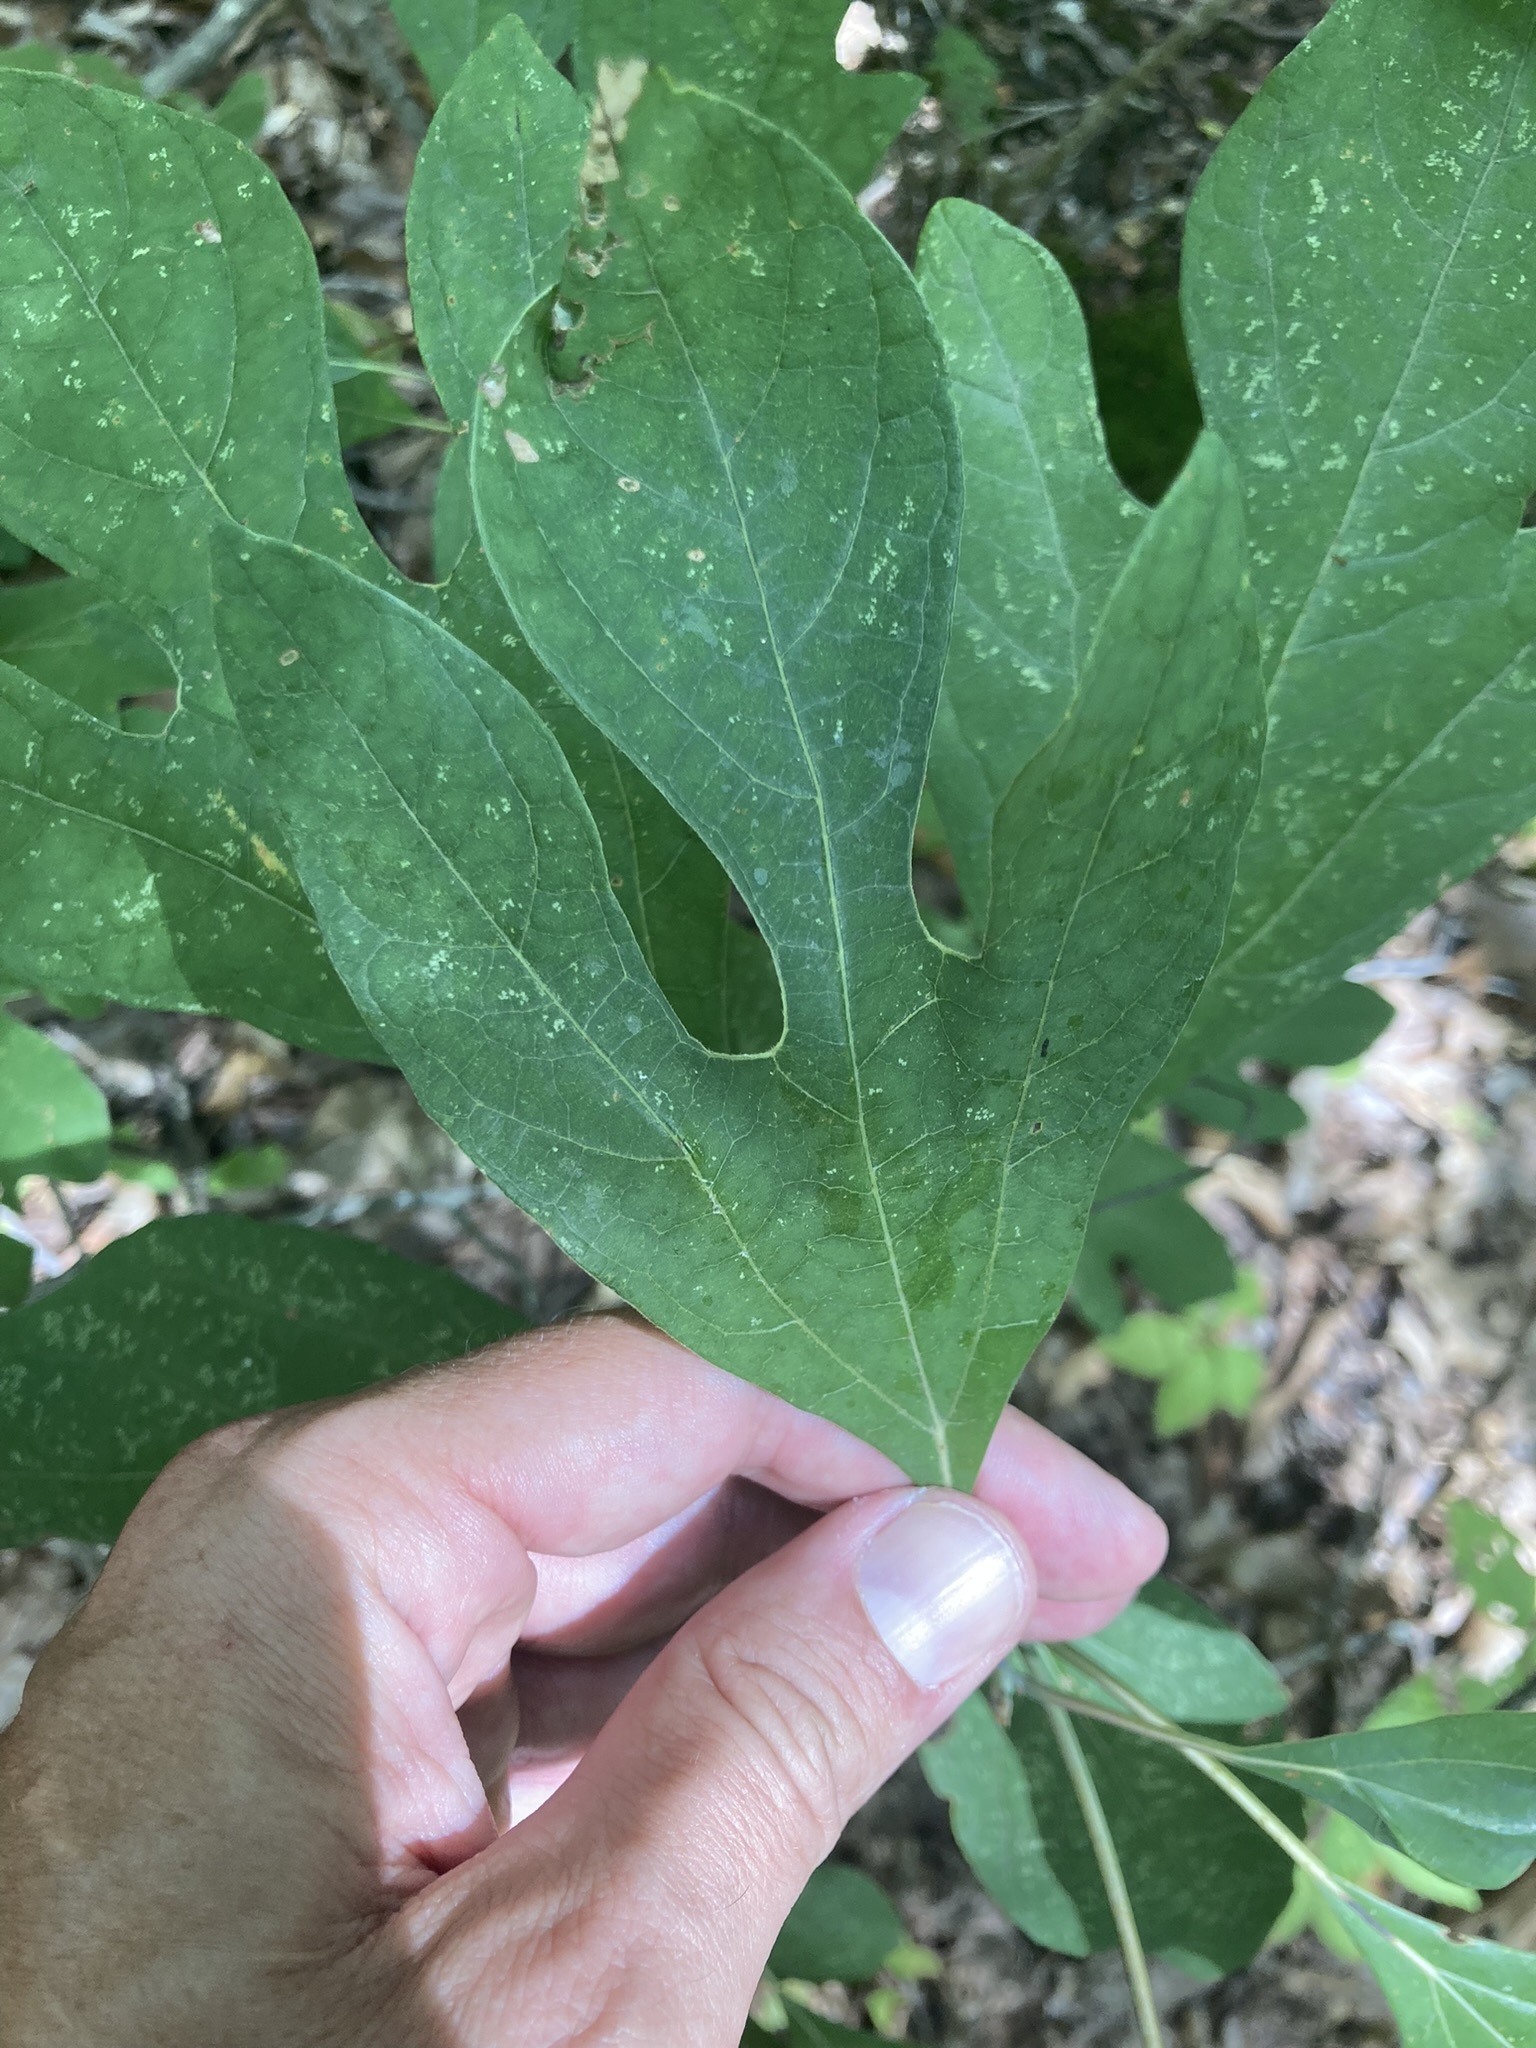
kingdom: Plantae
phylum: Tracheophyta
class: Magnoliopsida
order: Laurales
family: Lauraceae
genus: Sassafras
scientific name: Sassafras albidum
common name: Sassafras
